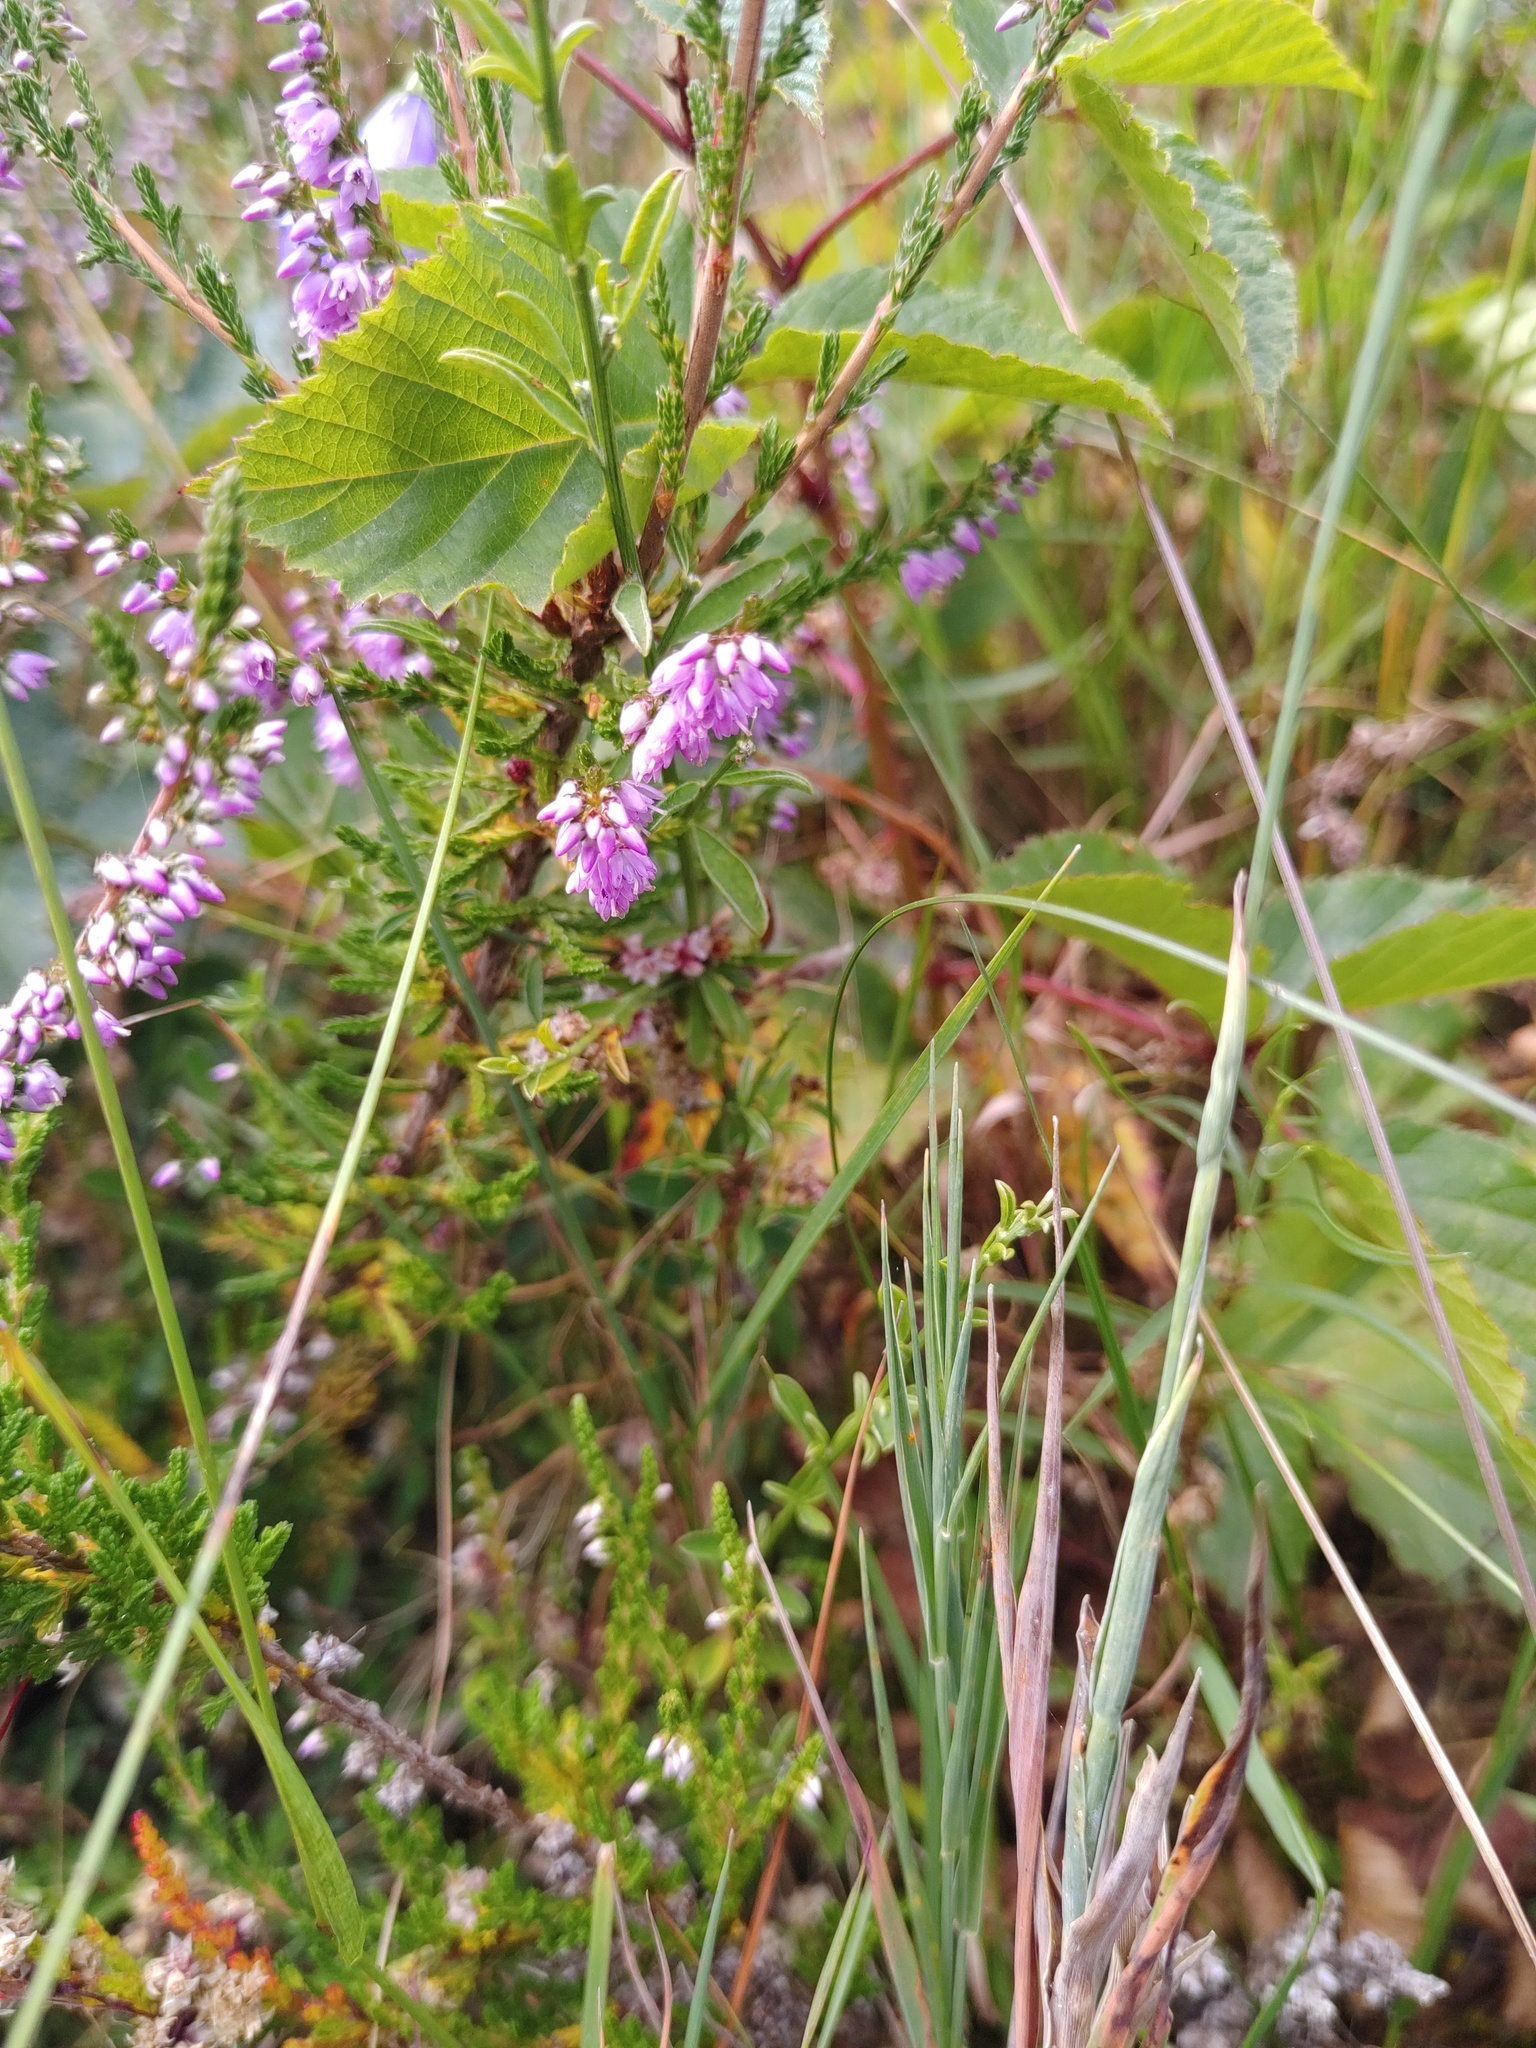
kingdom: Plantae
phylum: Tracheophyta
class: Magnoliopsida
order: Ericales
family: Ericaceae
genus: Calluna
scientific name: Calluna vulgaris
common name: Heather
